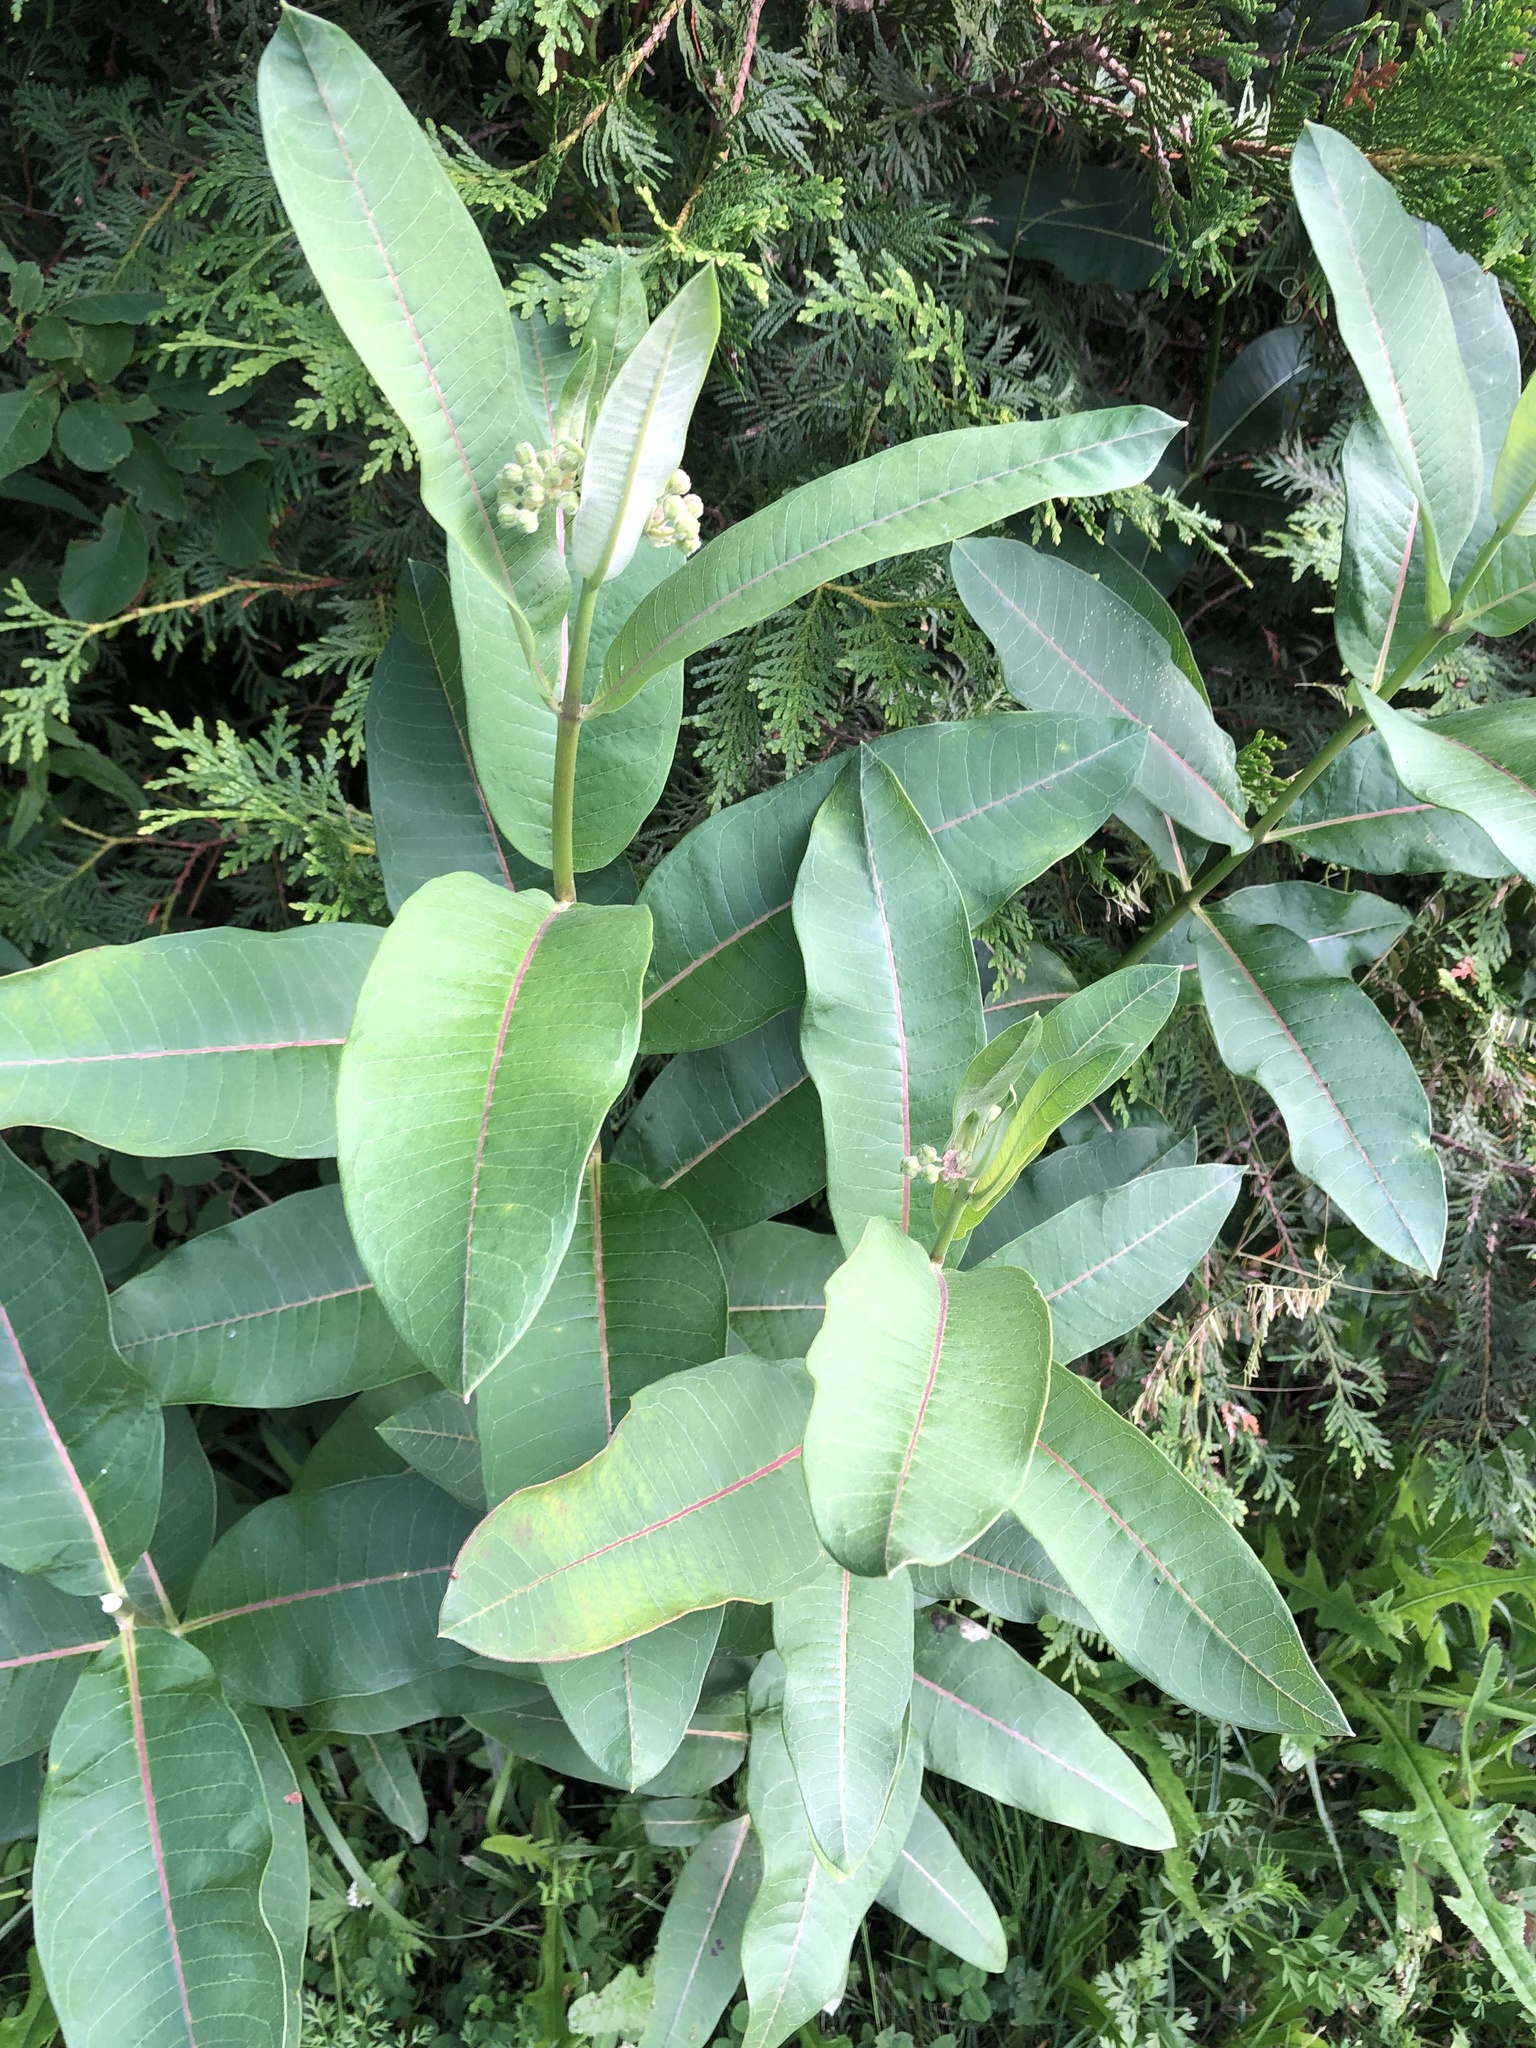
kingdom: Plantae
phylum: Tracheophyta
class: Magnoliopsida
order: Gentianales
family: Apocynaceae
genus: Asclepias
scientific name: Asclepias syriaca
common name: Common milkweed
